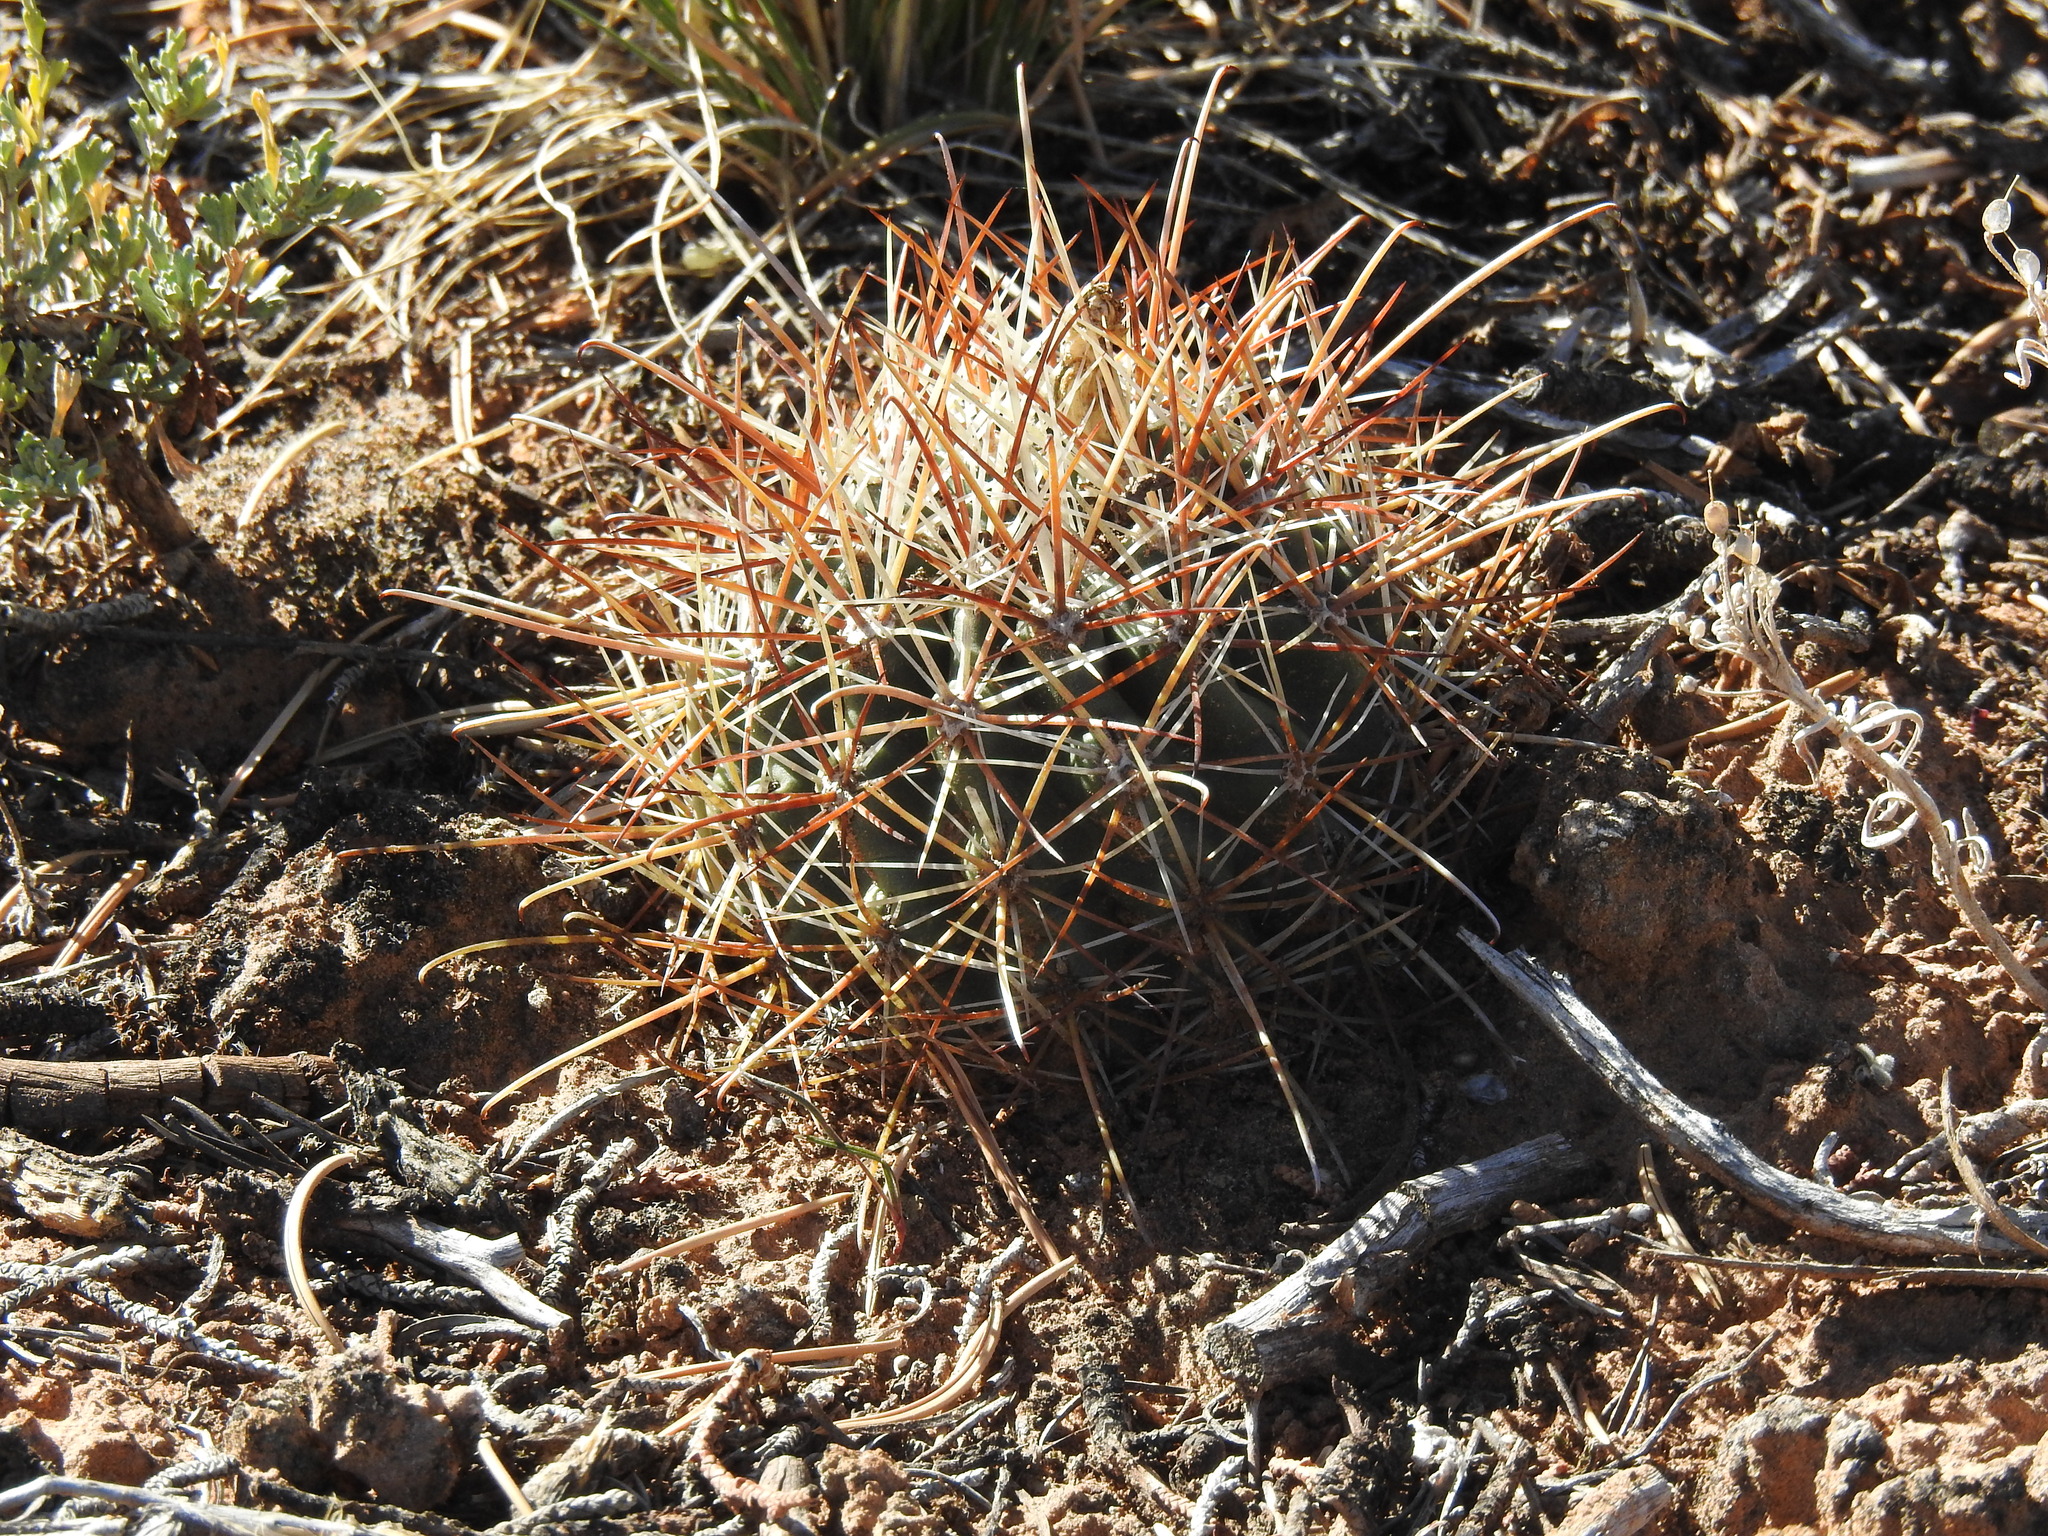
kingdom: Plantae
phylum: Tracheophyta
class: Magnoliopsida
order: Caryophyllales
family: Cactaceae
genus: Sclerocactus
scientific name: Sclerocactus parviflorus
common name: Small-flower fishhook cactus
